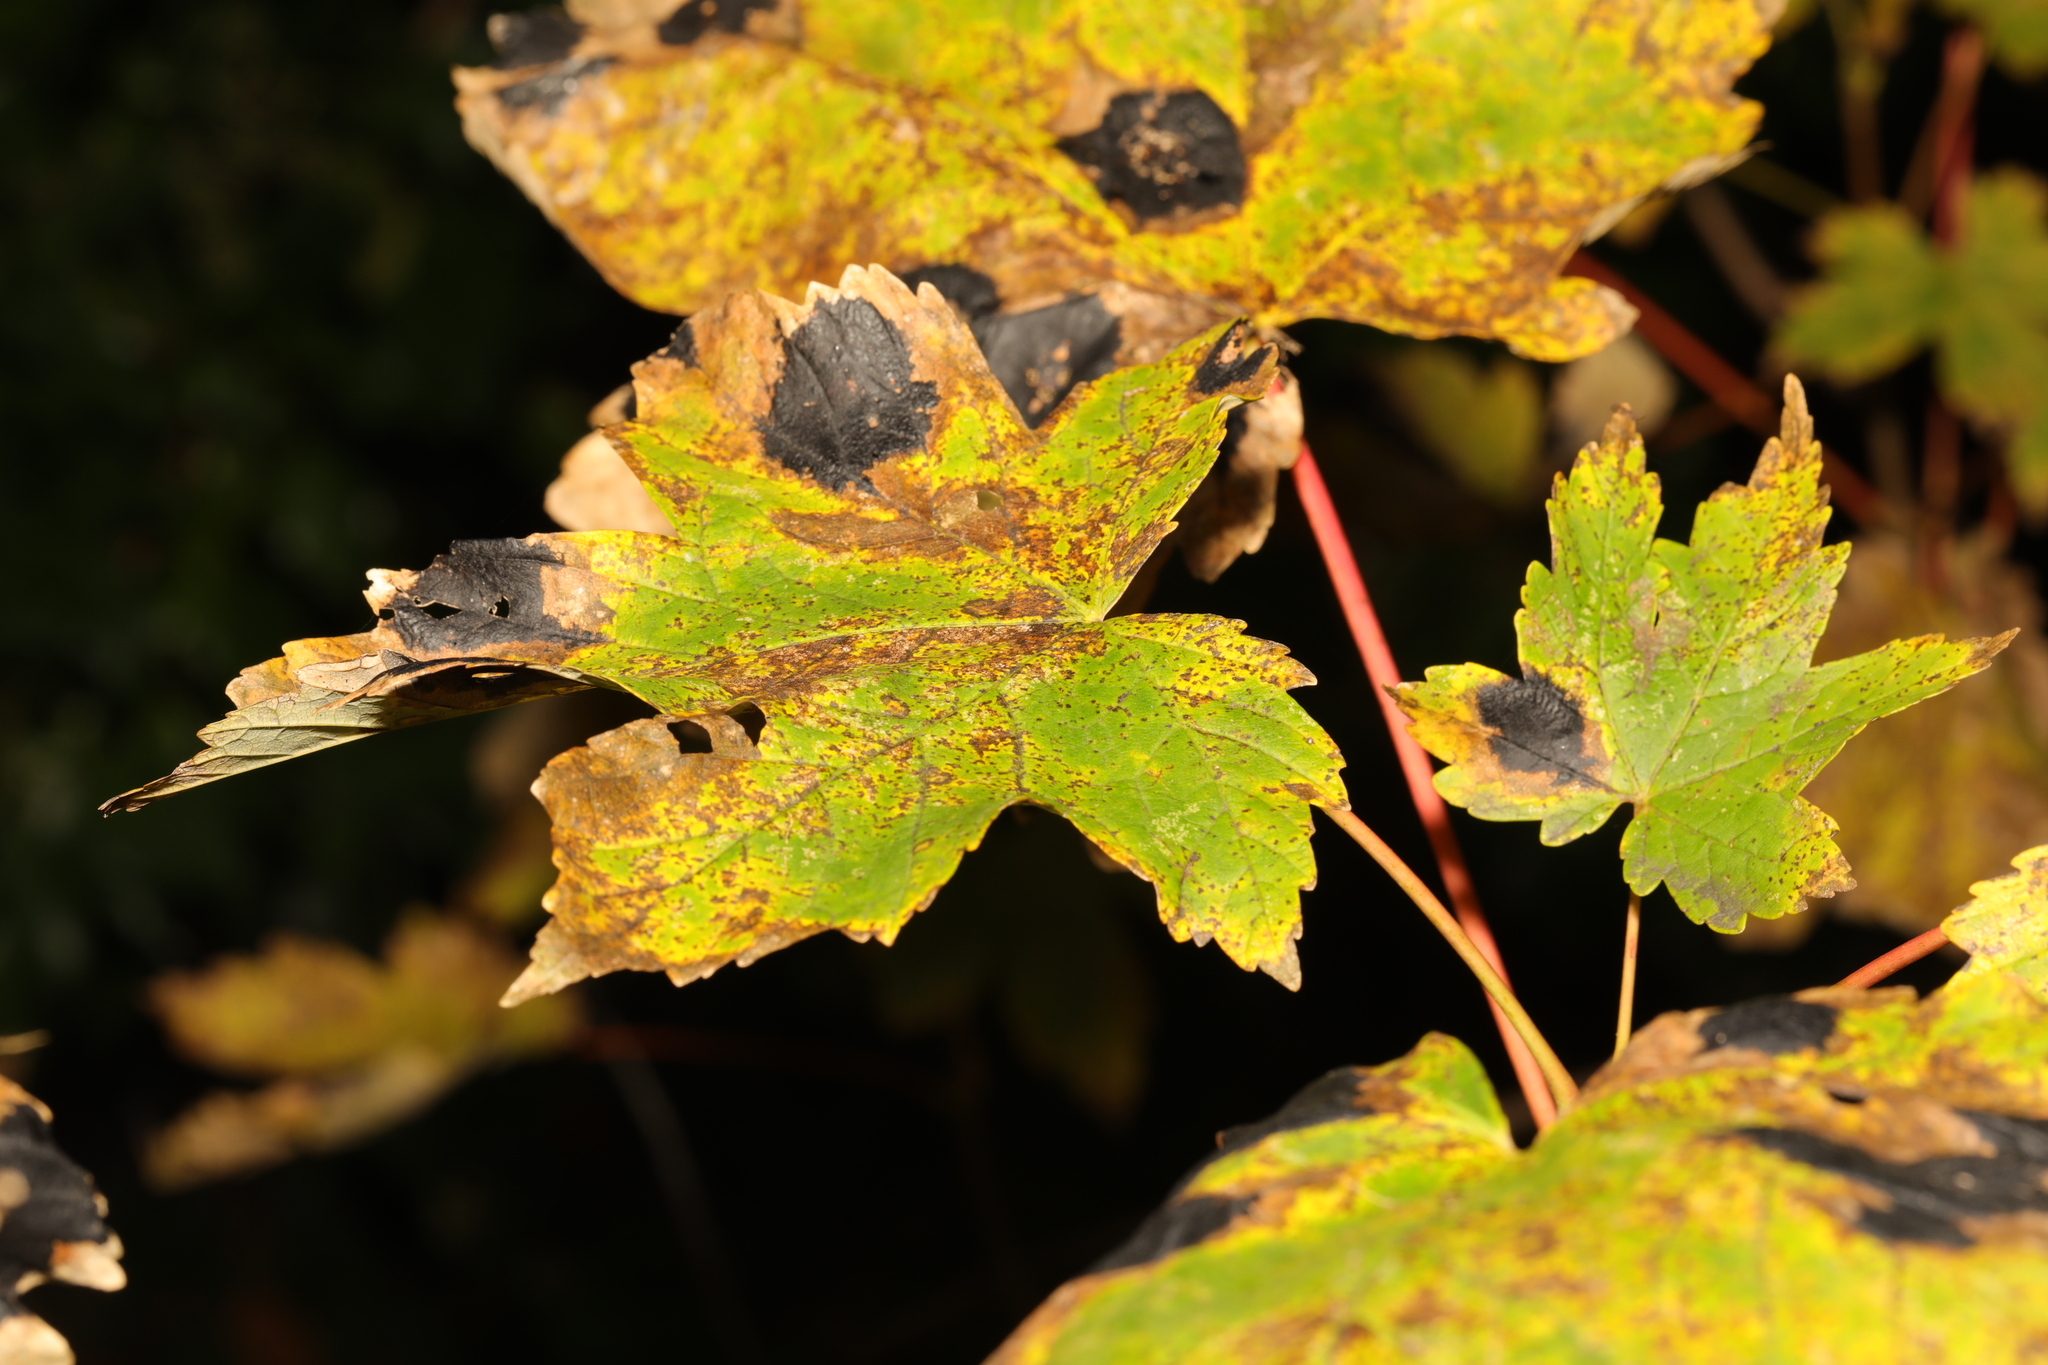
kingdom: Plantae
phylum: Tracheophyta
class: Magnoliopsida
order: Sapindales
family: Sapindaceae
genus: Acer
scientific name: Acer pseudoplatanus
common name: Sycamore
